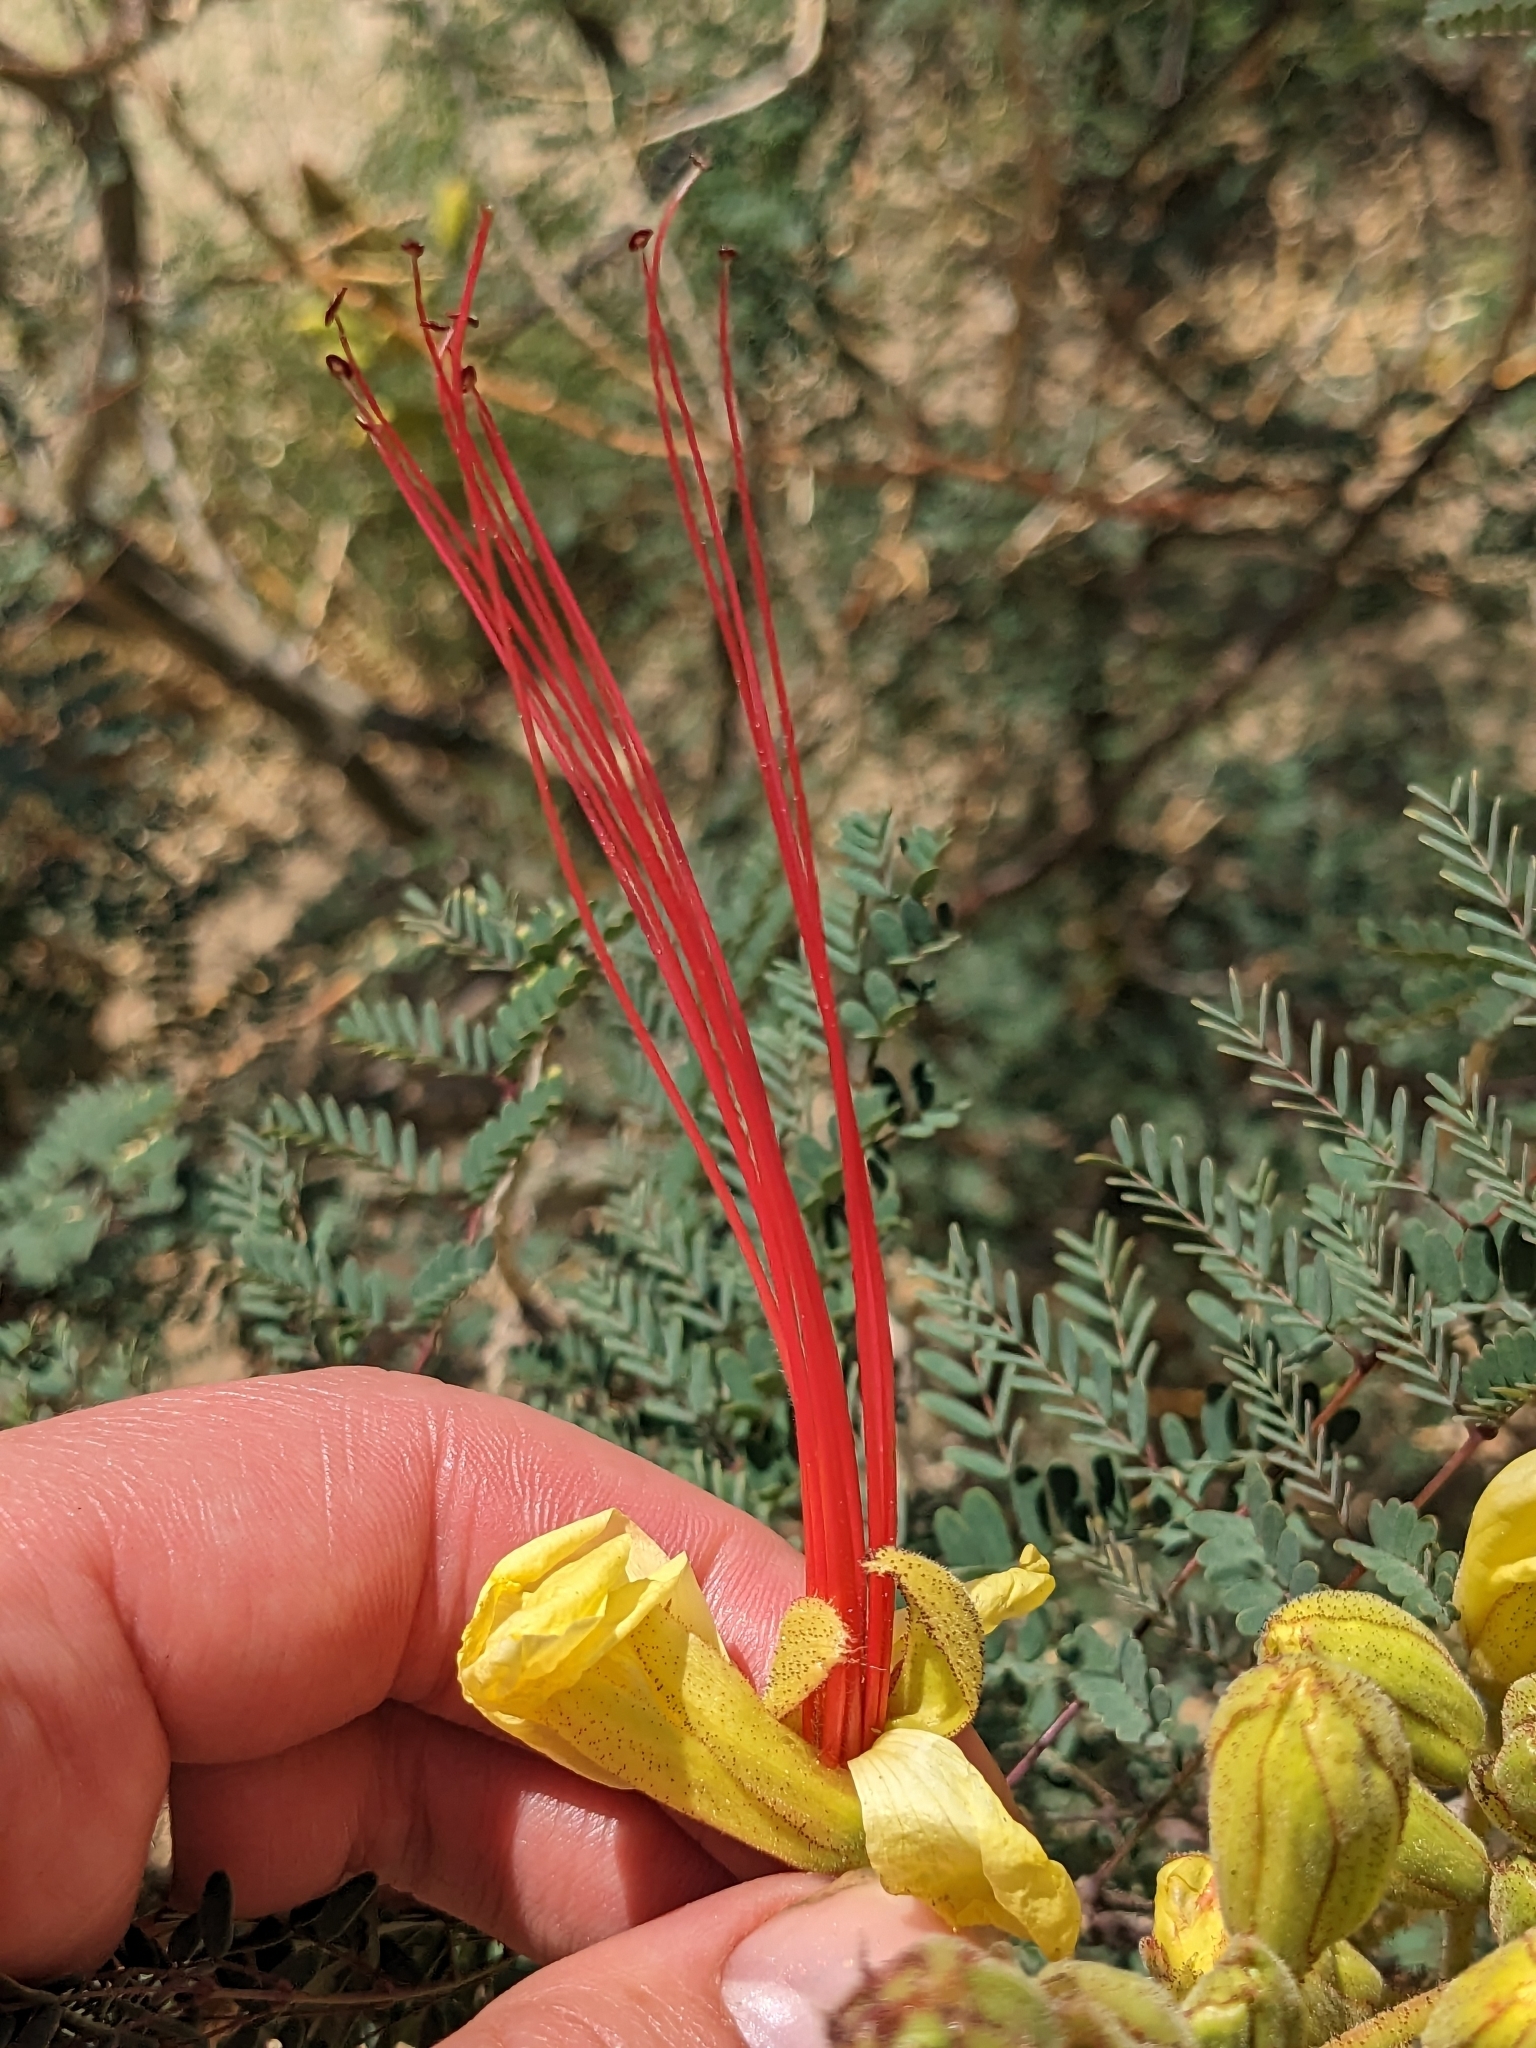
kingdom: Plantae
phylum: Tracheophyta
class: Magnoliopsida
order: Fabales
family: Fabaceae
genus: Erythrostemon
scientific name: Erythrostemon gilliesii
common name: Bird-of-paradise shrub
